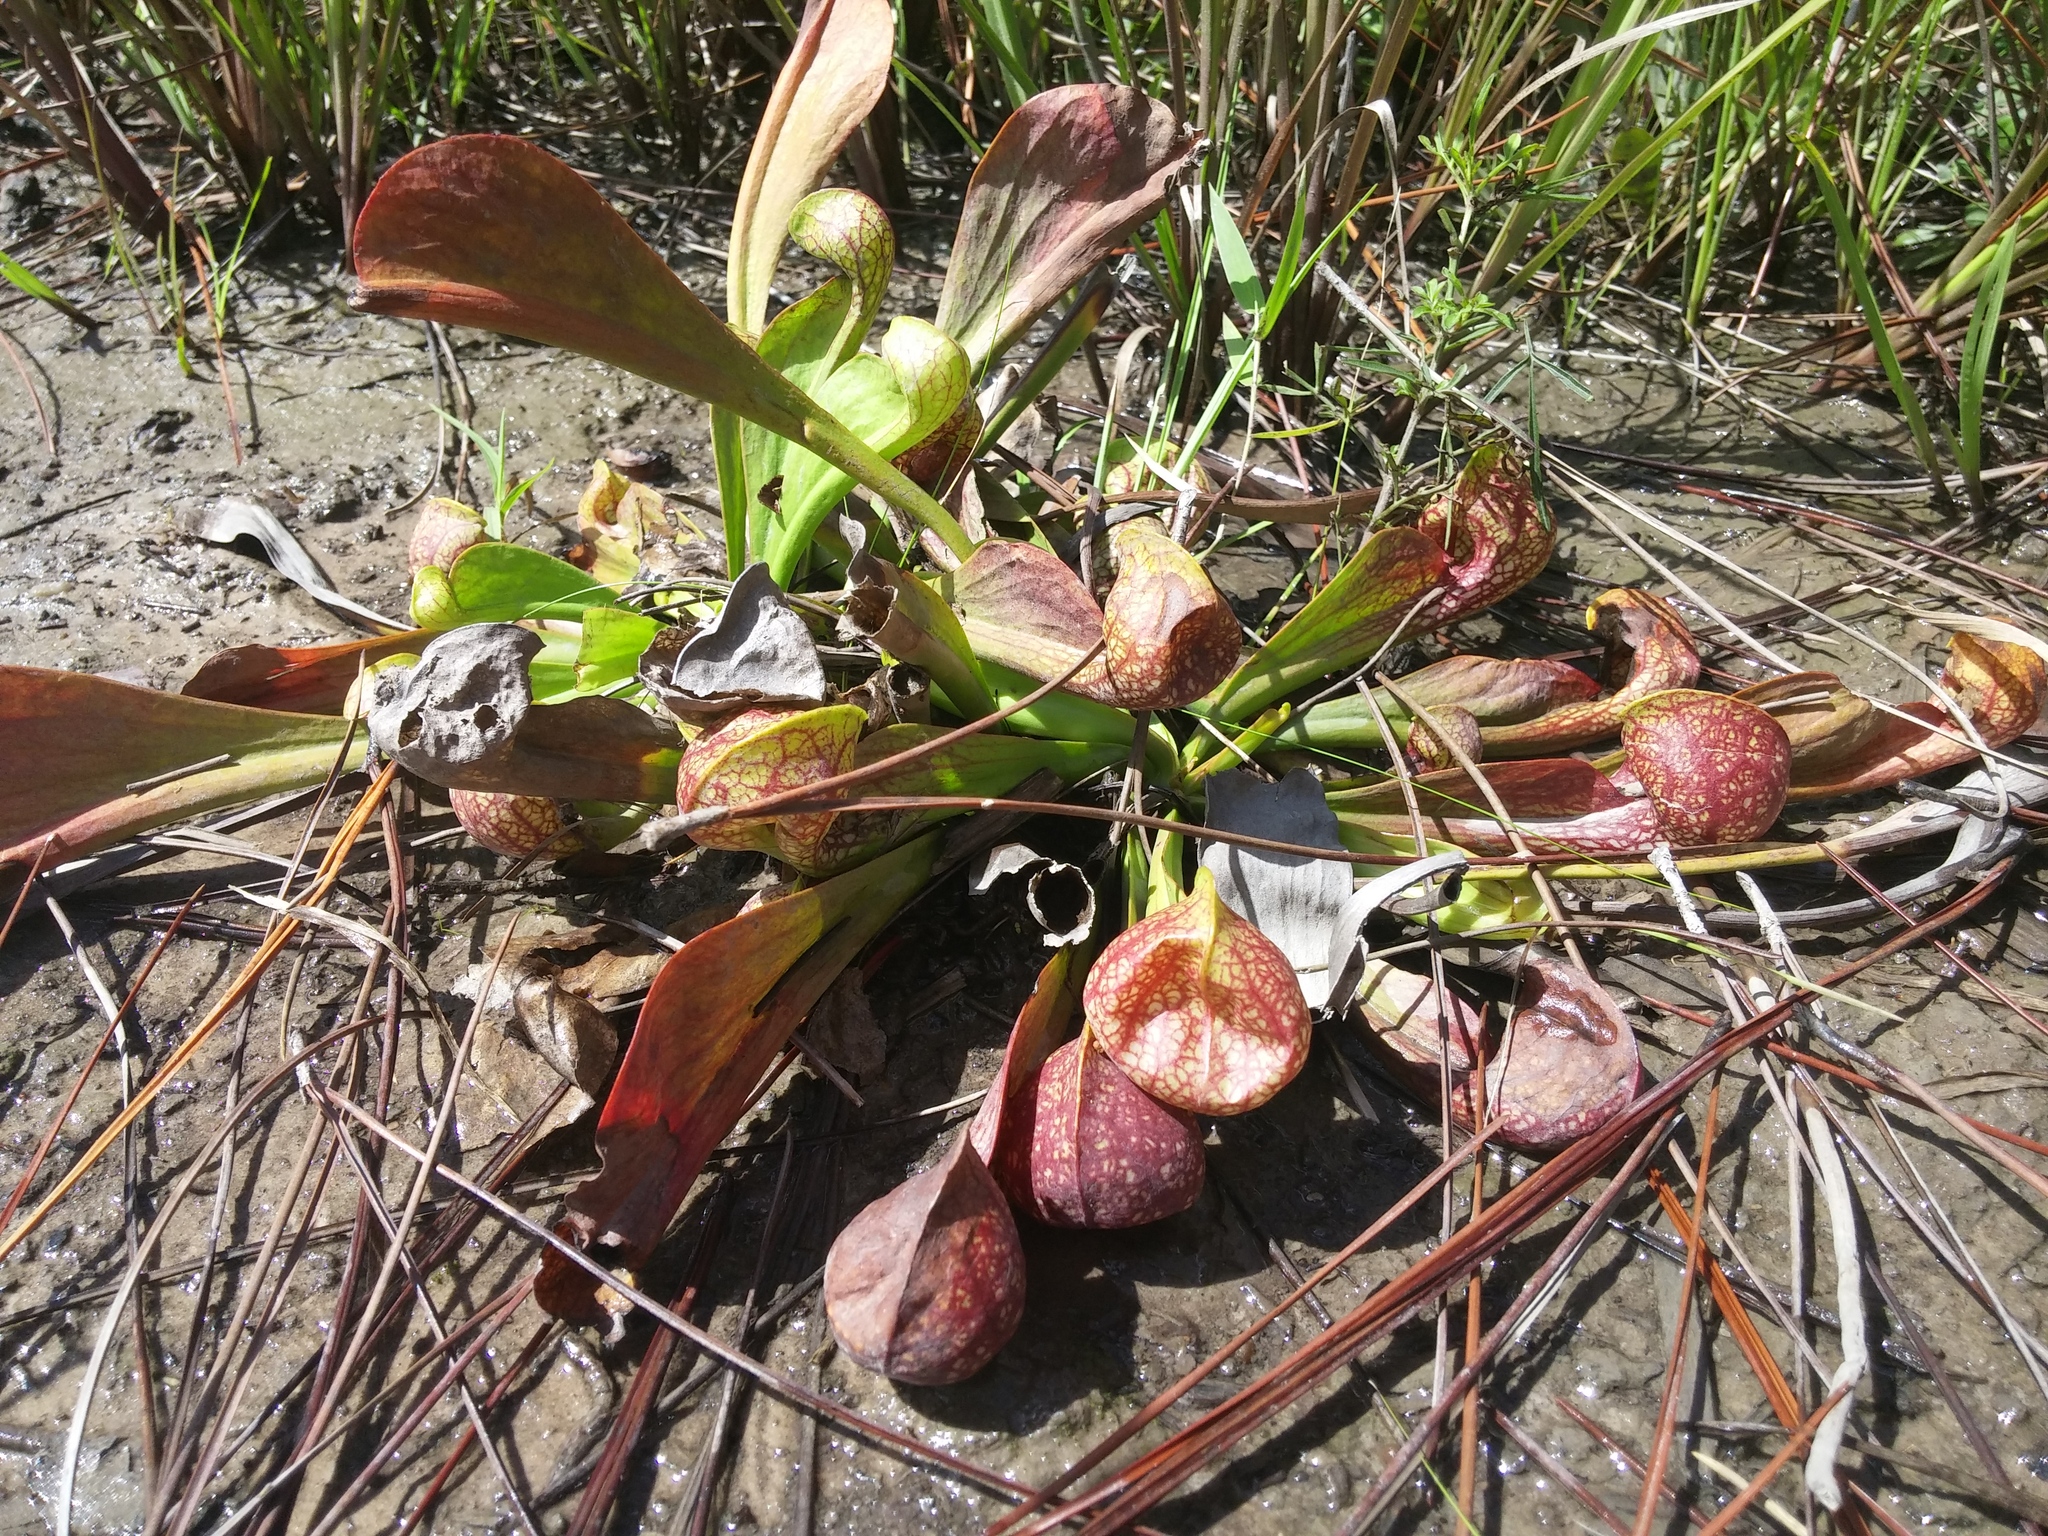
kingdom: Plantae
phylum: Tracheophyta
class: Magnoliopsida
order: Ericales
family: Sarraceniaceae
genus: Sarracenia
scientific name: Sarracenia psittacina
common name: Parrot pitcherplant
